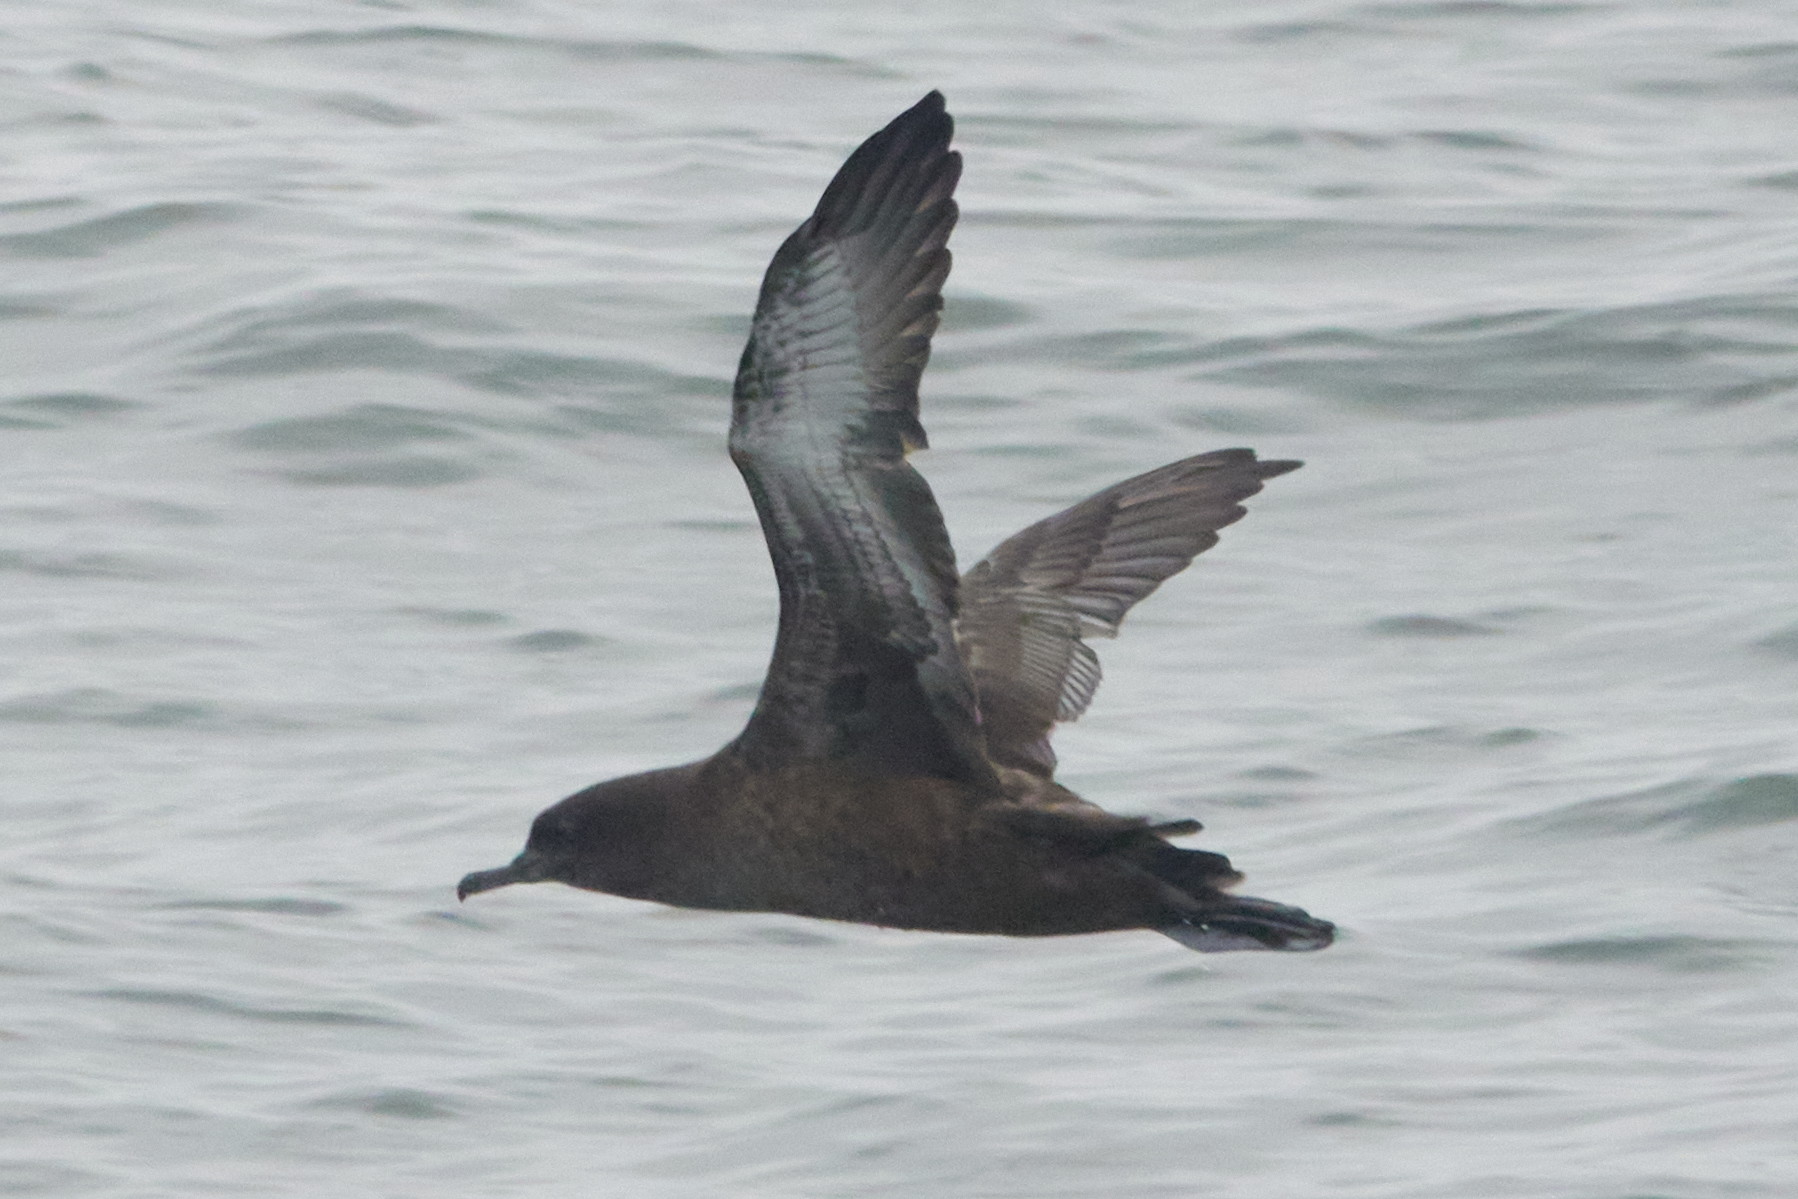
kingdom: Animalia
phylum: Chordata
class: Aves
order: Procellariiformes
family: Procellariidae
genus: Puffinus
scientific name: Puffinus griseus
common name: Sooty shearwater
